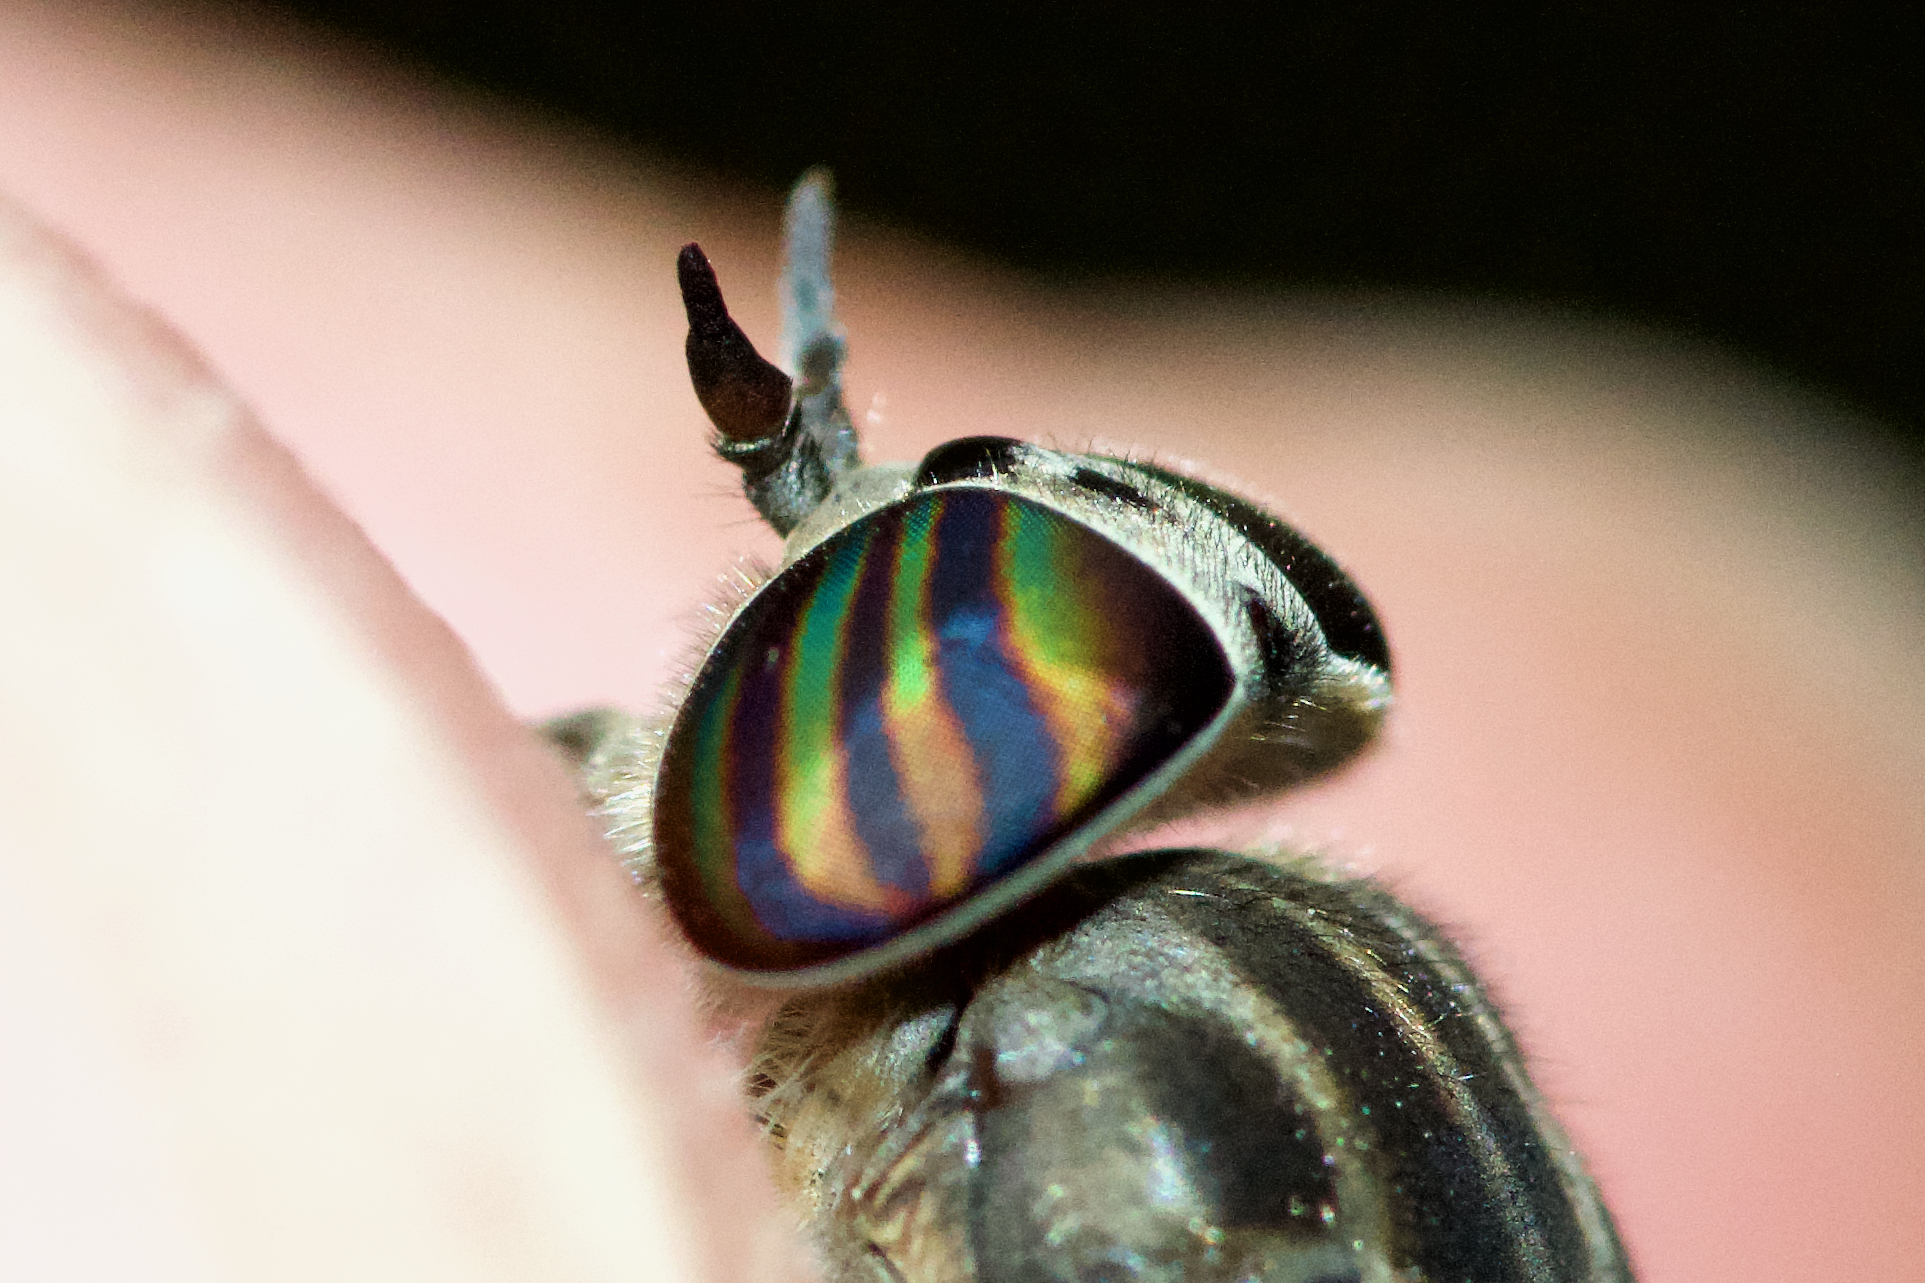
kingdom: Animalia
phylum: Arthropoda
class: Insecta
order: Diptera
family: Tabanidae
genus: Hybomitra
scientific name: Hybomitra astuta
